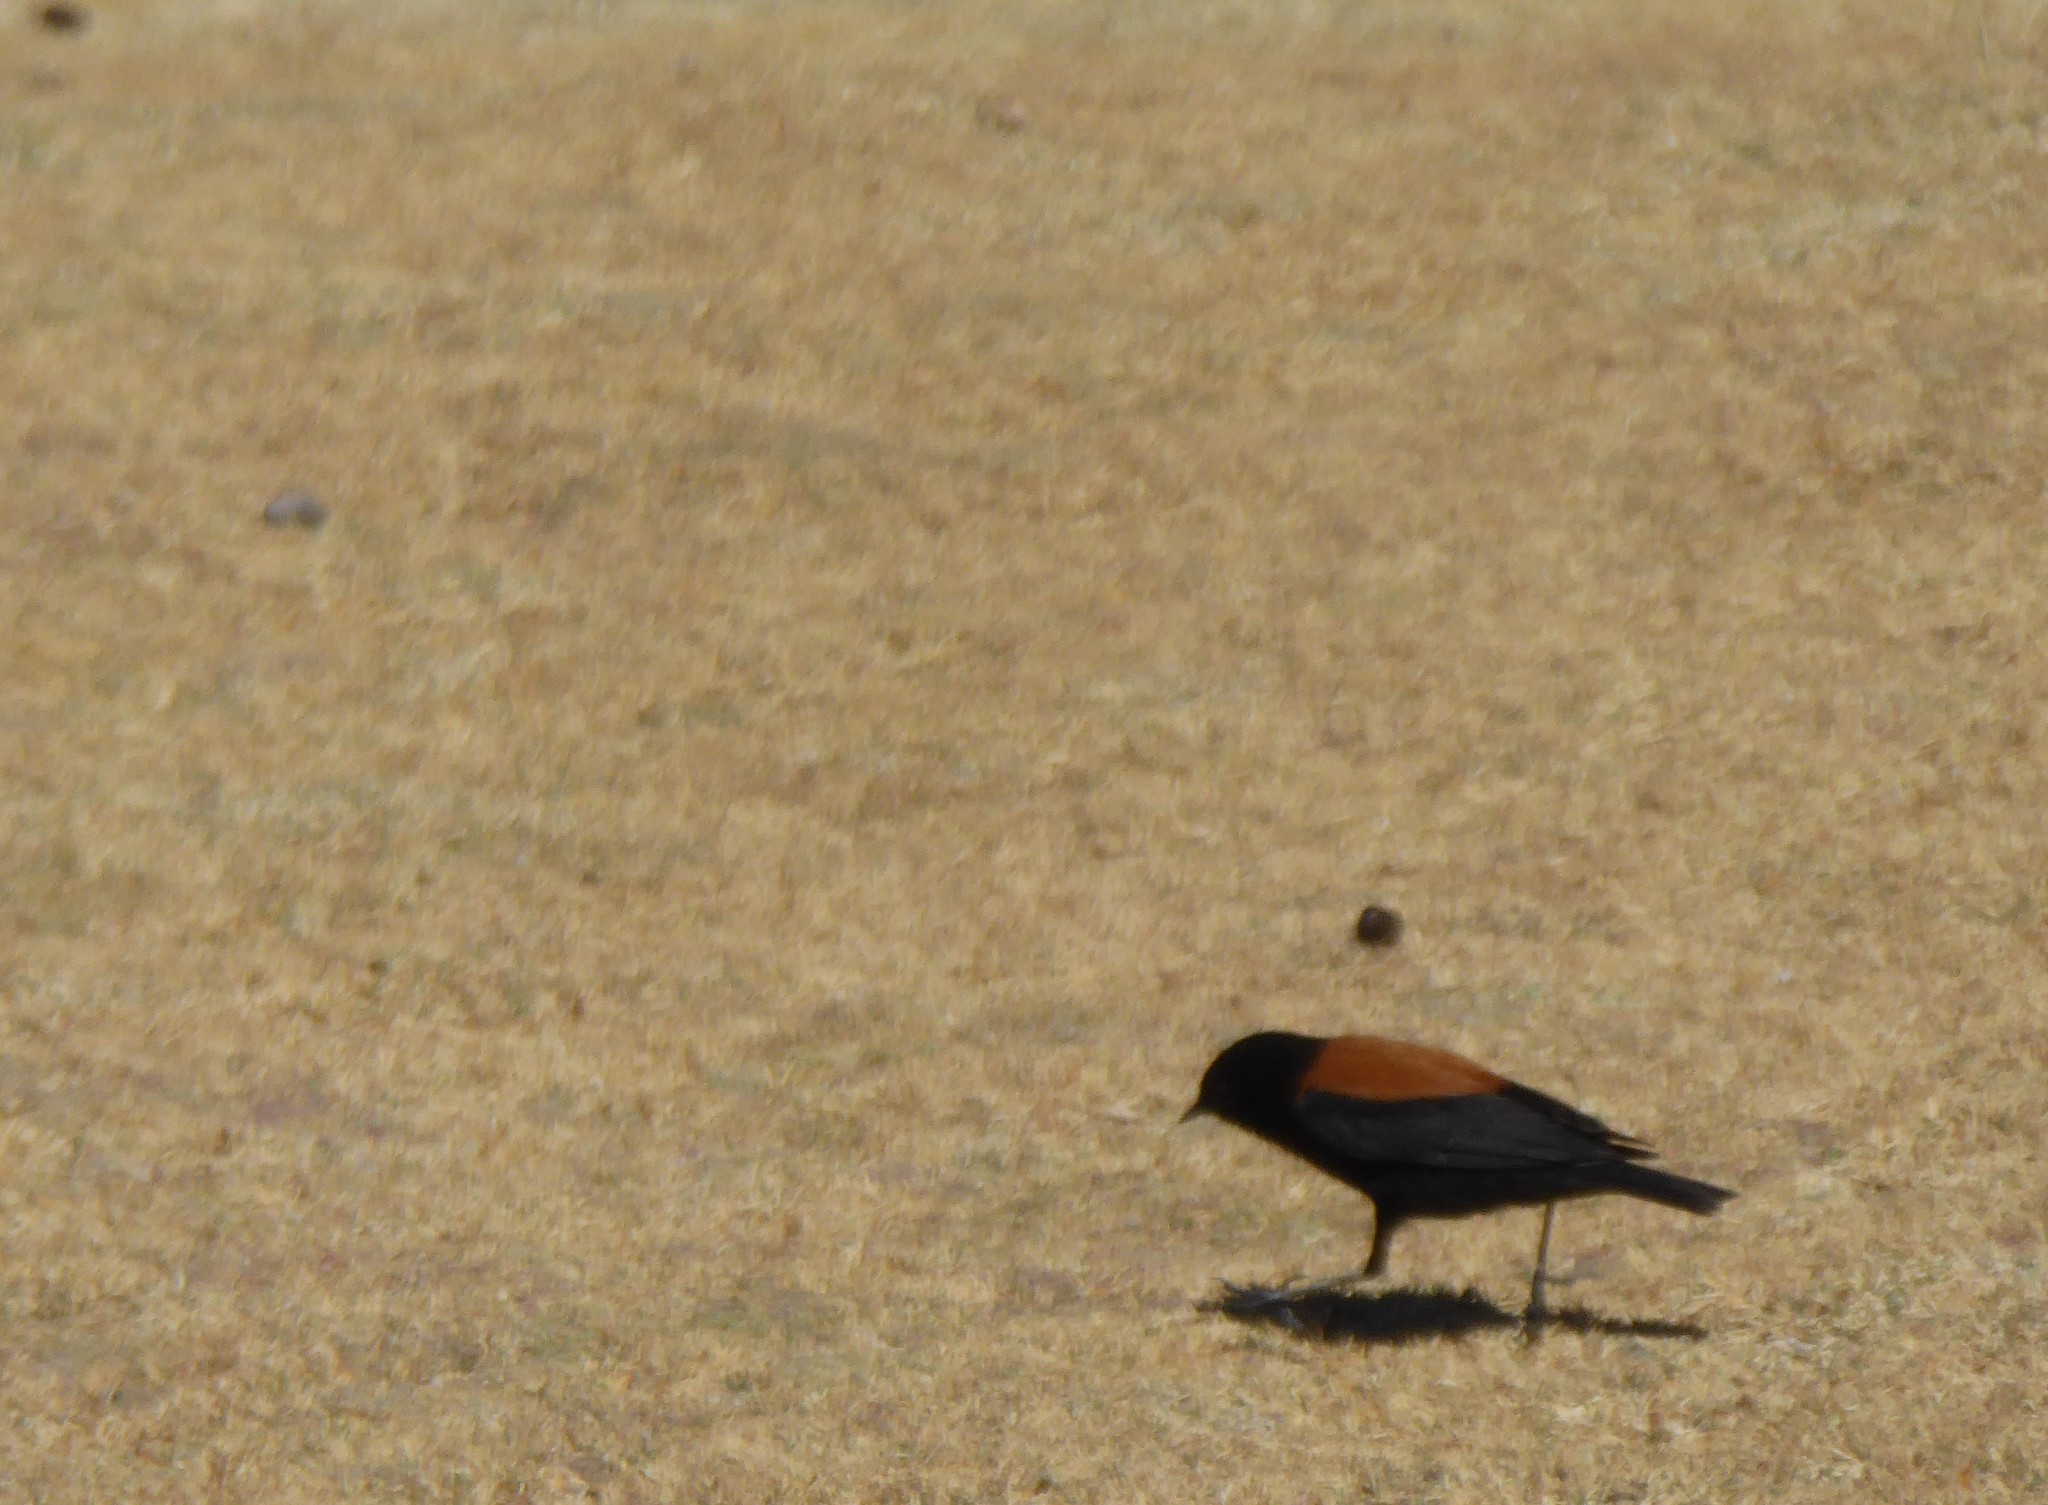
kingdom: Animalia
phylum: Chordata
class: Aves
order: Passeriformes
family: Tyrannidae
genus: Lessonia
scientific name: Lessonia oreas
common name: Andean negrito
